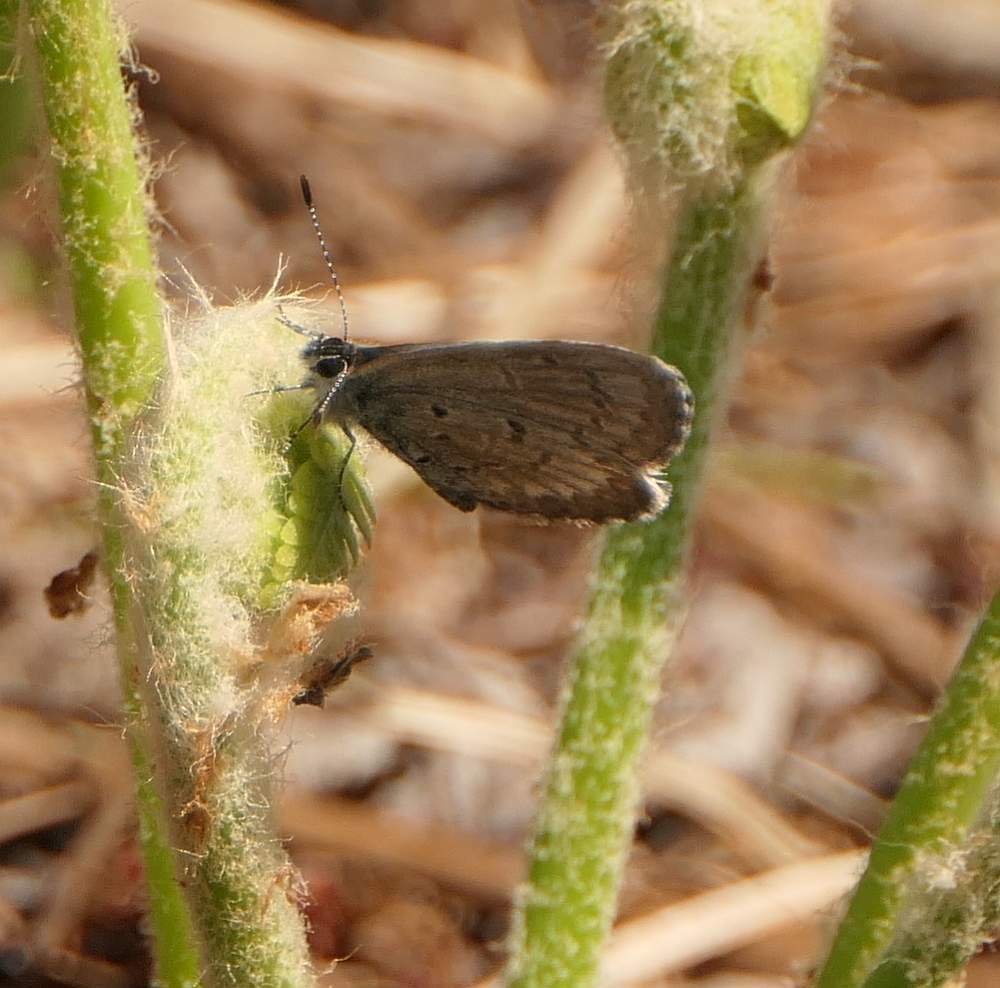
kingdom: Animalia
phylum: Arthropoda
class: Insecta
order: Lepidoptera
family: Lycaenidae
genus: Celastrina
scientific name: Celastrina lucia
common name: Lucia azure
